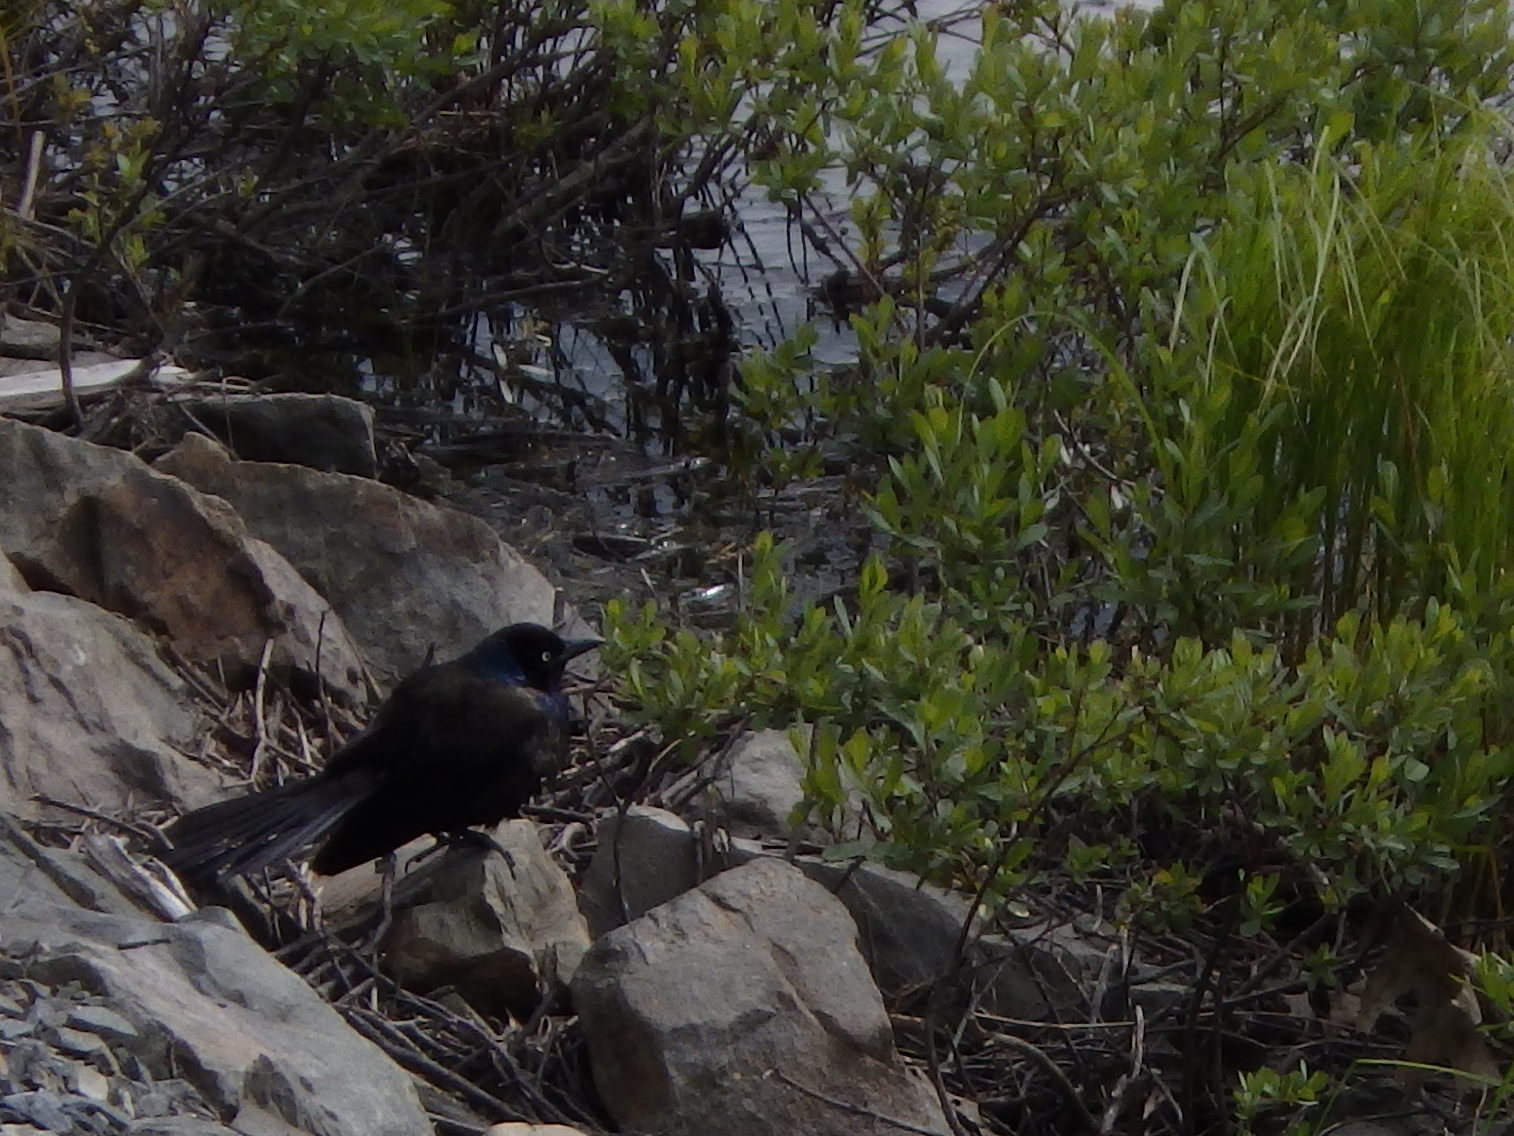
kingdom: Animalia
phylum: Chordata
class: Aves
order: Passeriformes
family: Icteridae
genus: Quiscalus
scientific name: Quiscalus quiscula
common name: Common grackle
